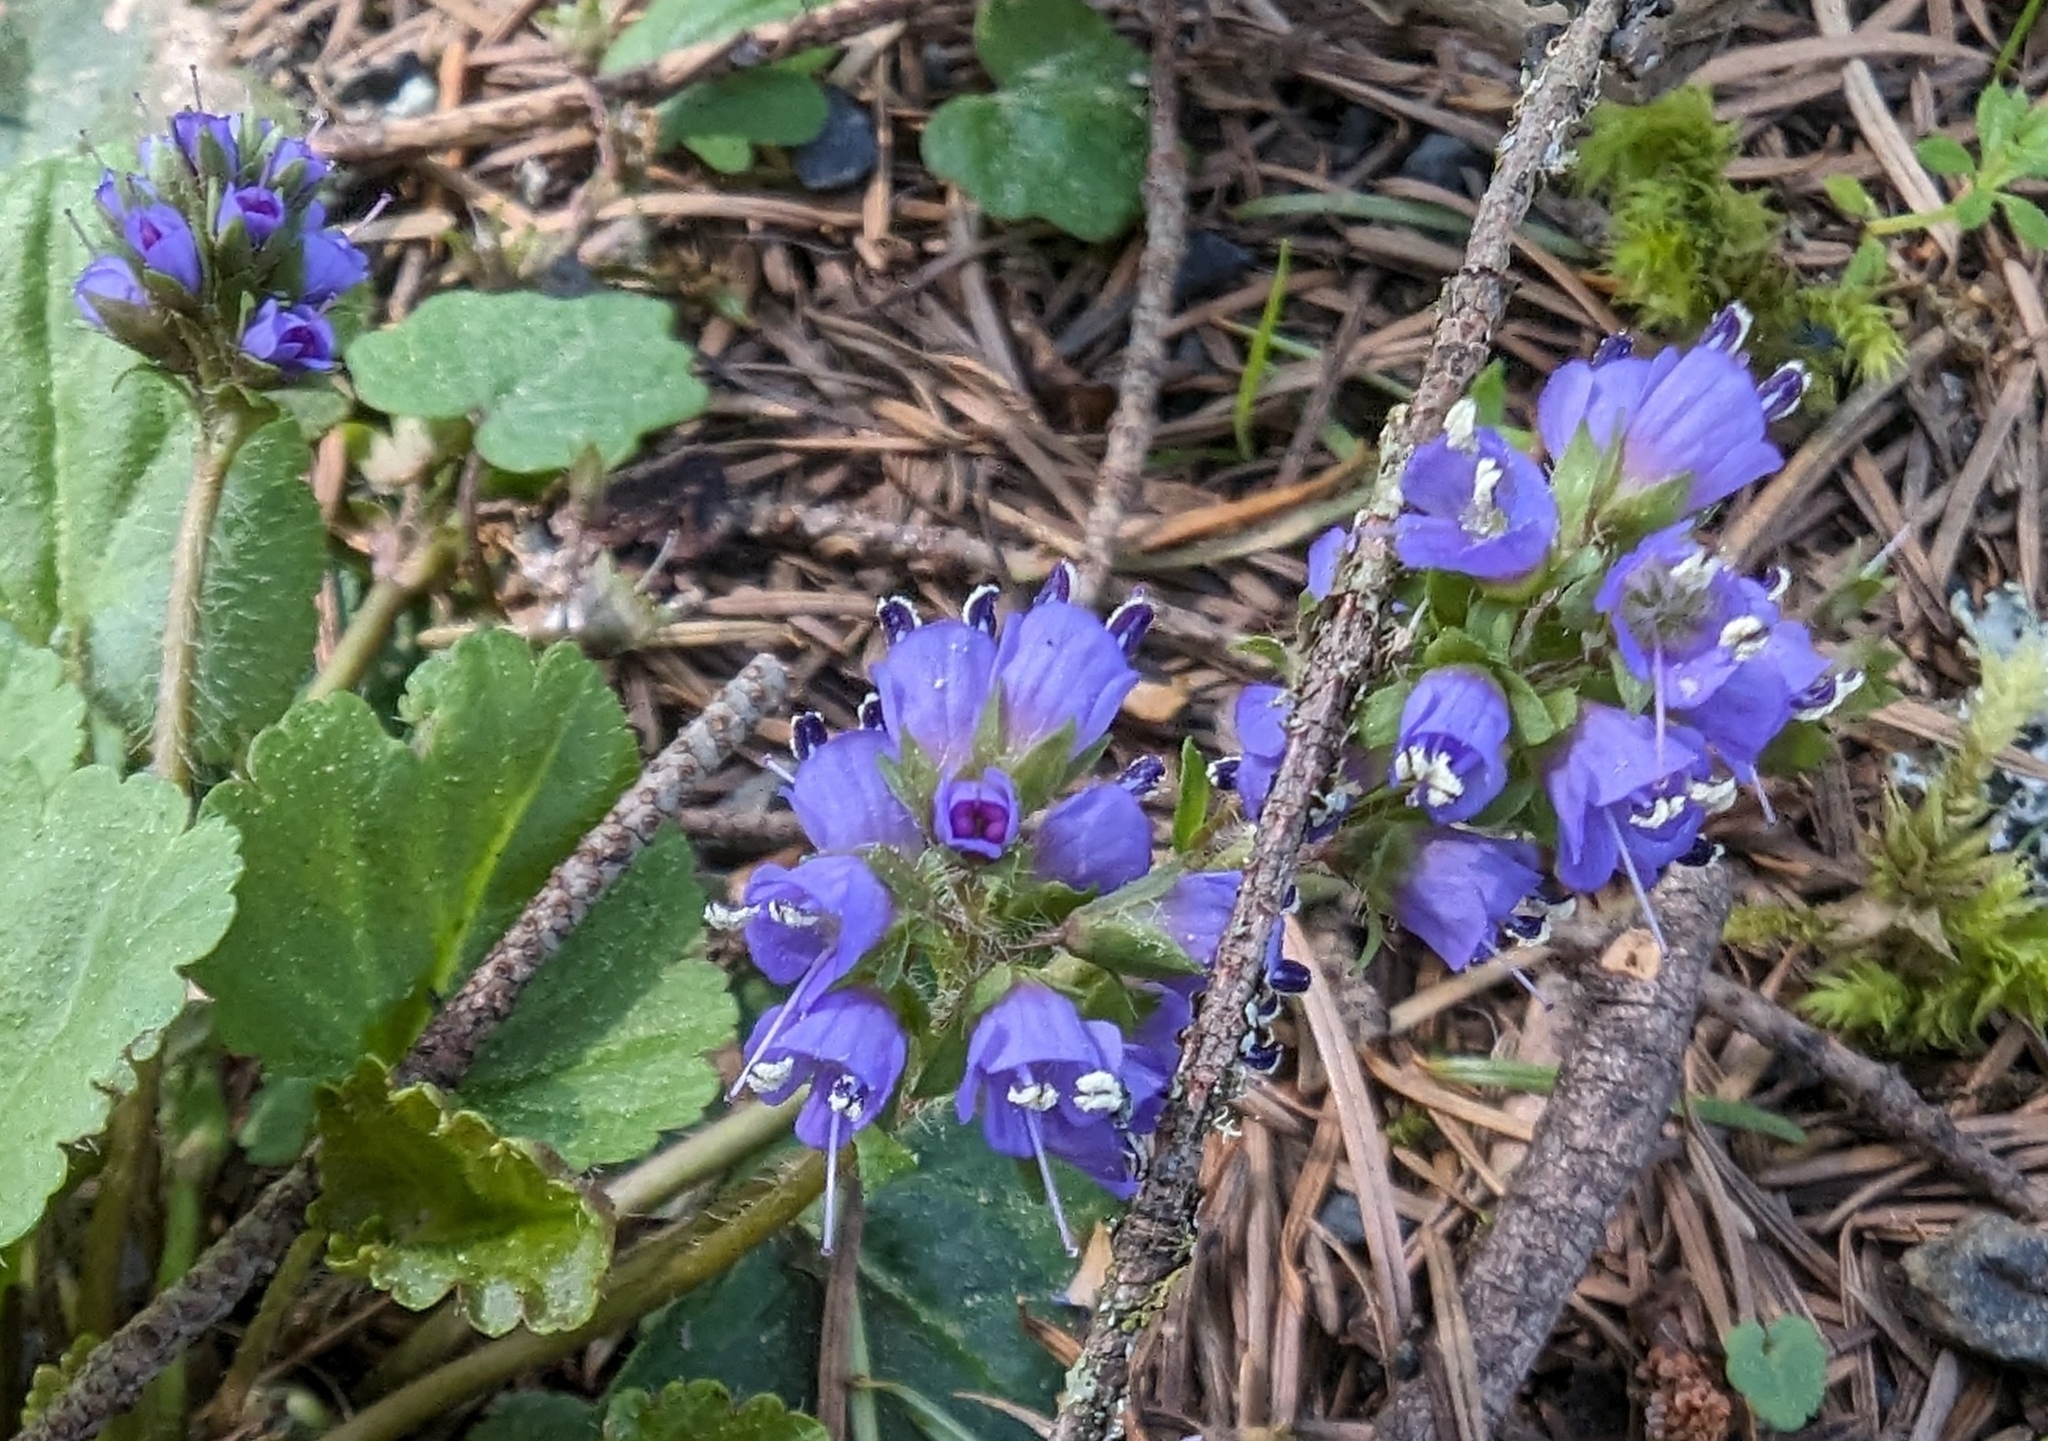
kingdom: Plantae
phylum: Tracheophyta
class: Magnoliopsida
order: Lamiales
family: Plantaginaceae
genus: Synthyris
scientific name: Synthyris reniformis
